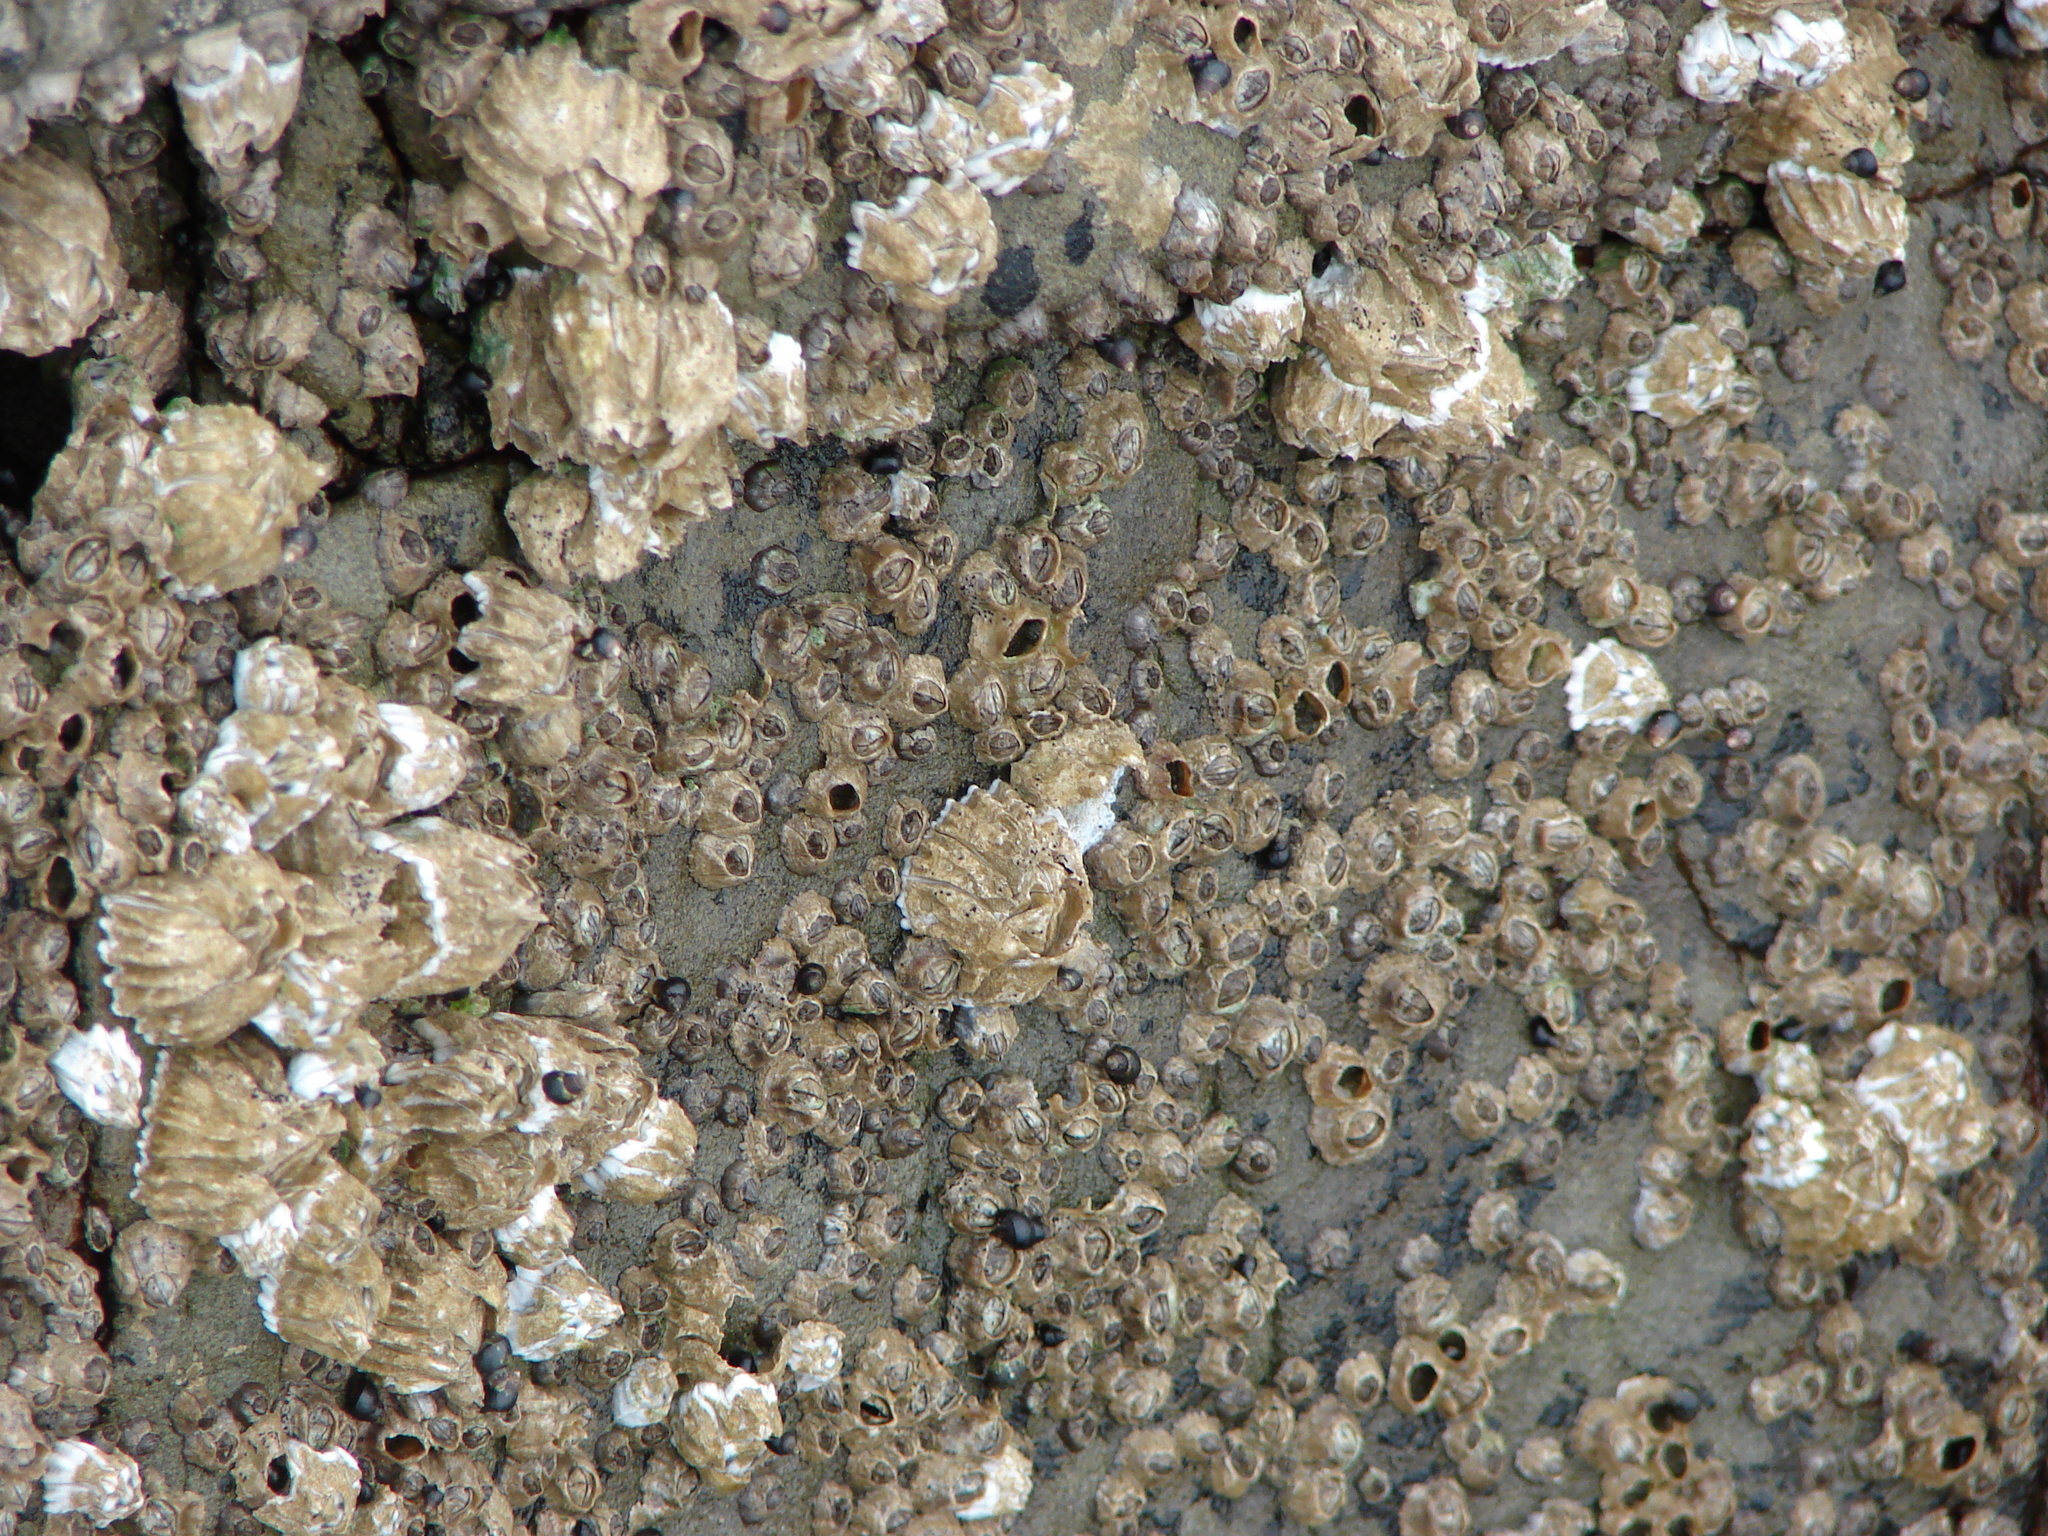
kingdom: Animalia
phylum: Arthropoda
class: Maxillopoda
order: Sessilia
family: Chthamalidae
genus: Chthamalus
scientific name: Chthamalus dalli
